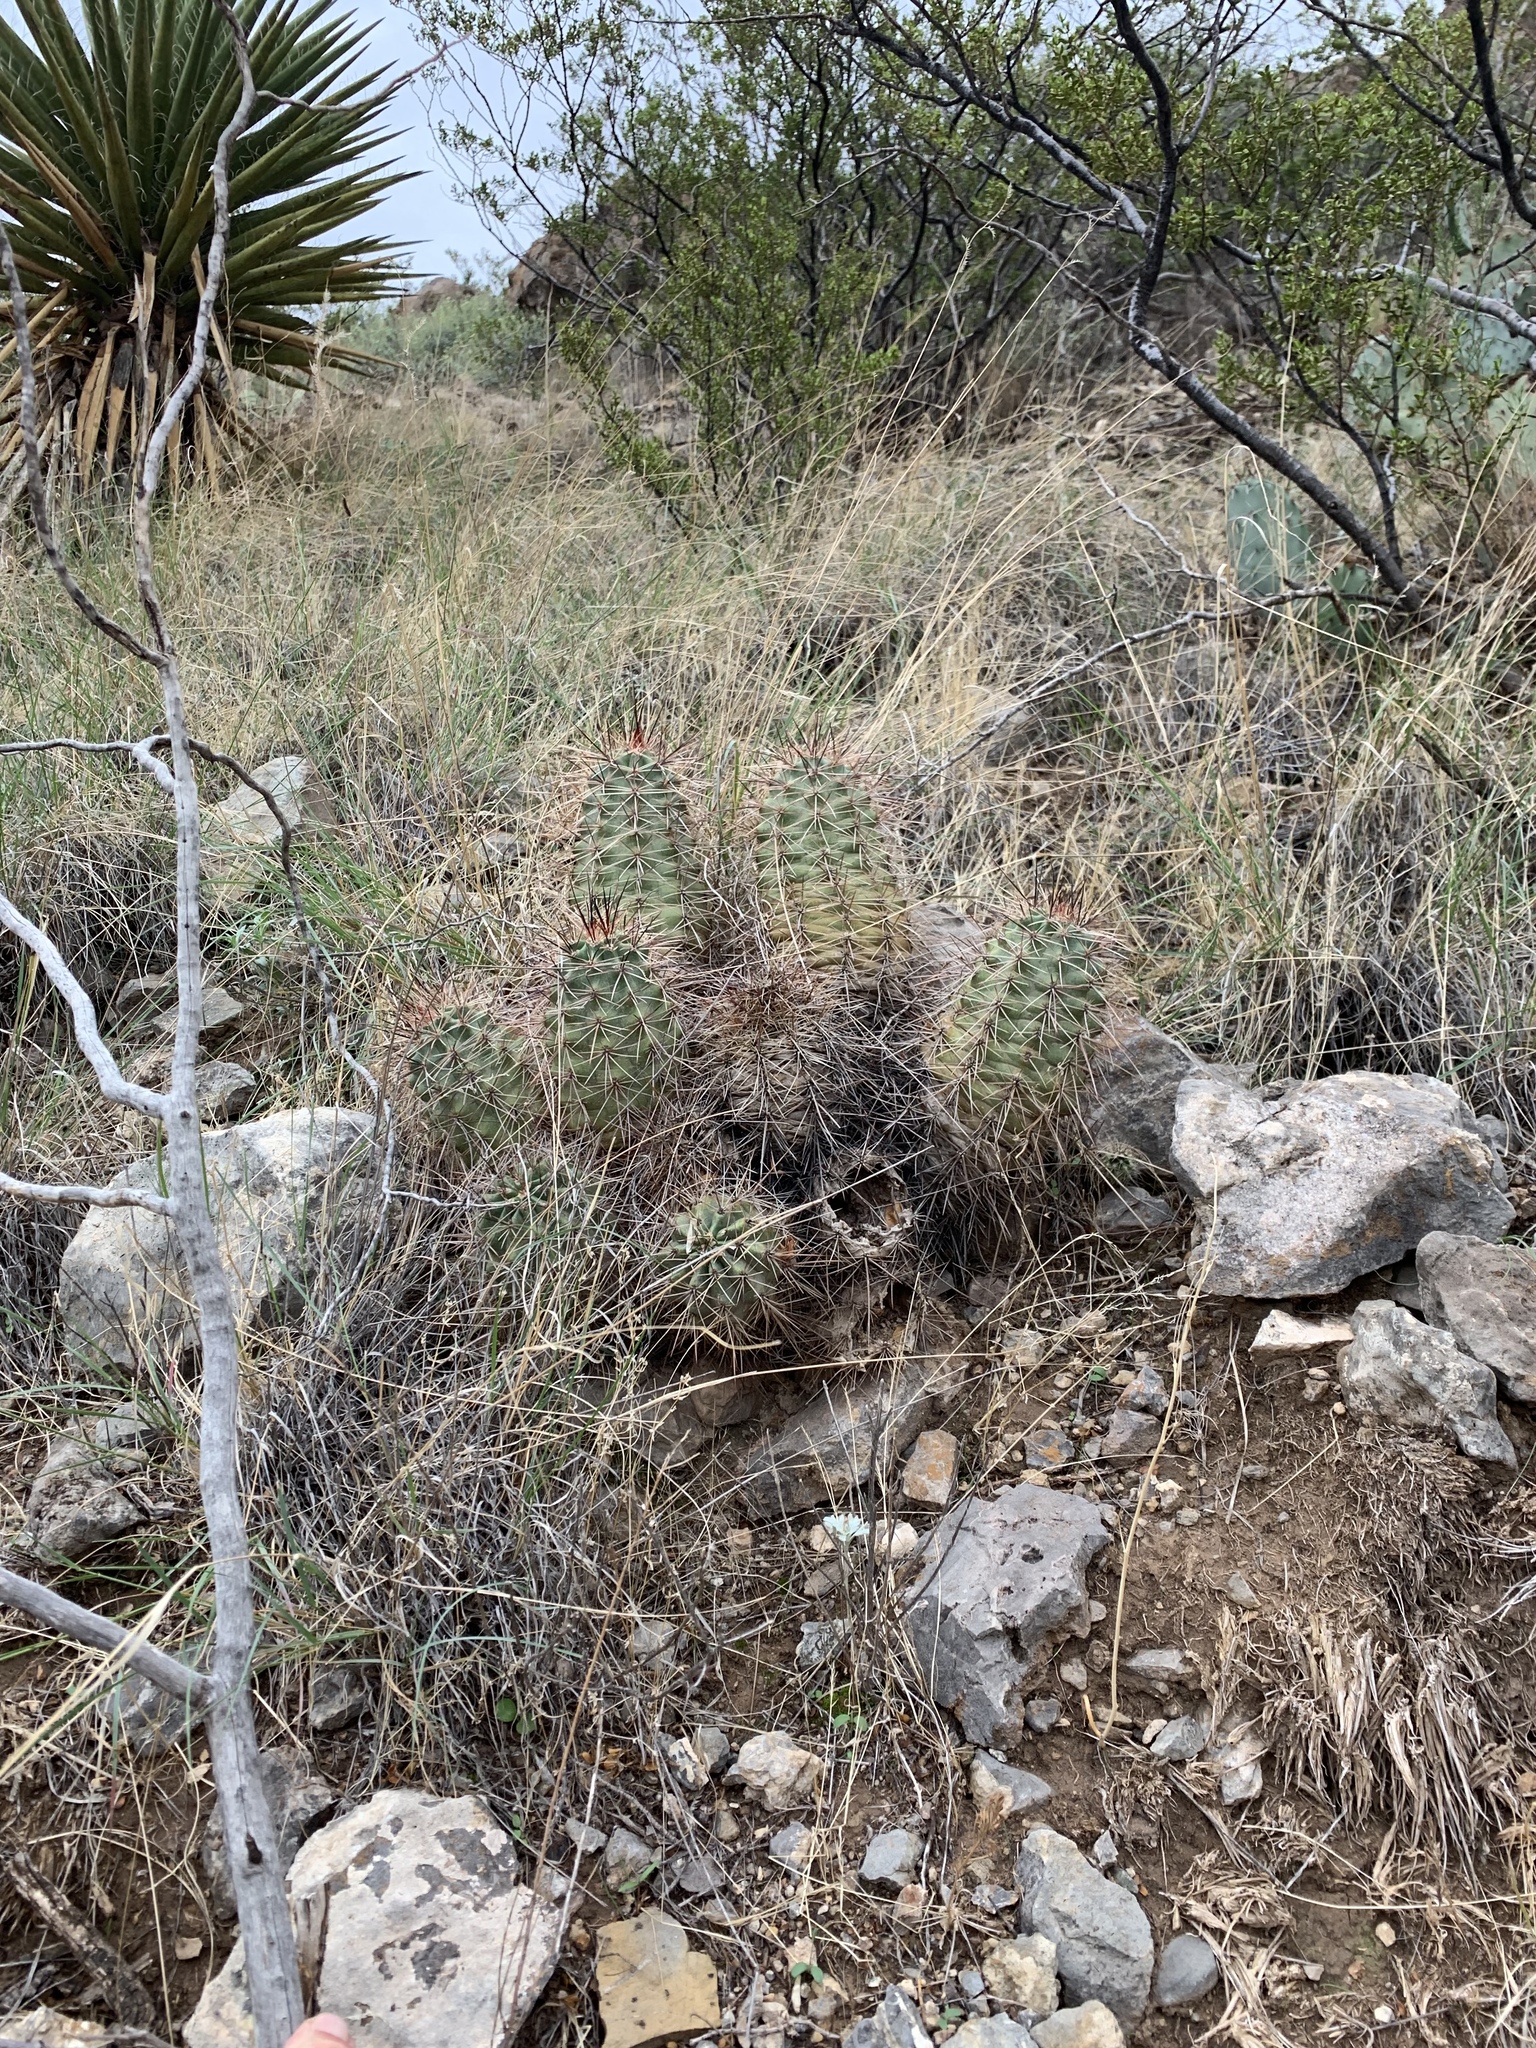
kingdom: Plantae
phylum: Tracheophyta
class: Magnoliopsida
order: Caryophyllales
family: Cactaceae
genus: Echinocereus
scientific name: Echinocereus coccineus
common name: Scarlet hedgehog cactus
